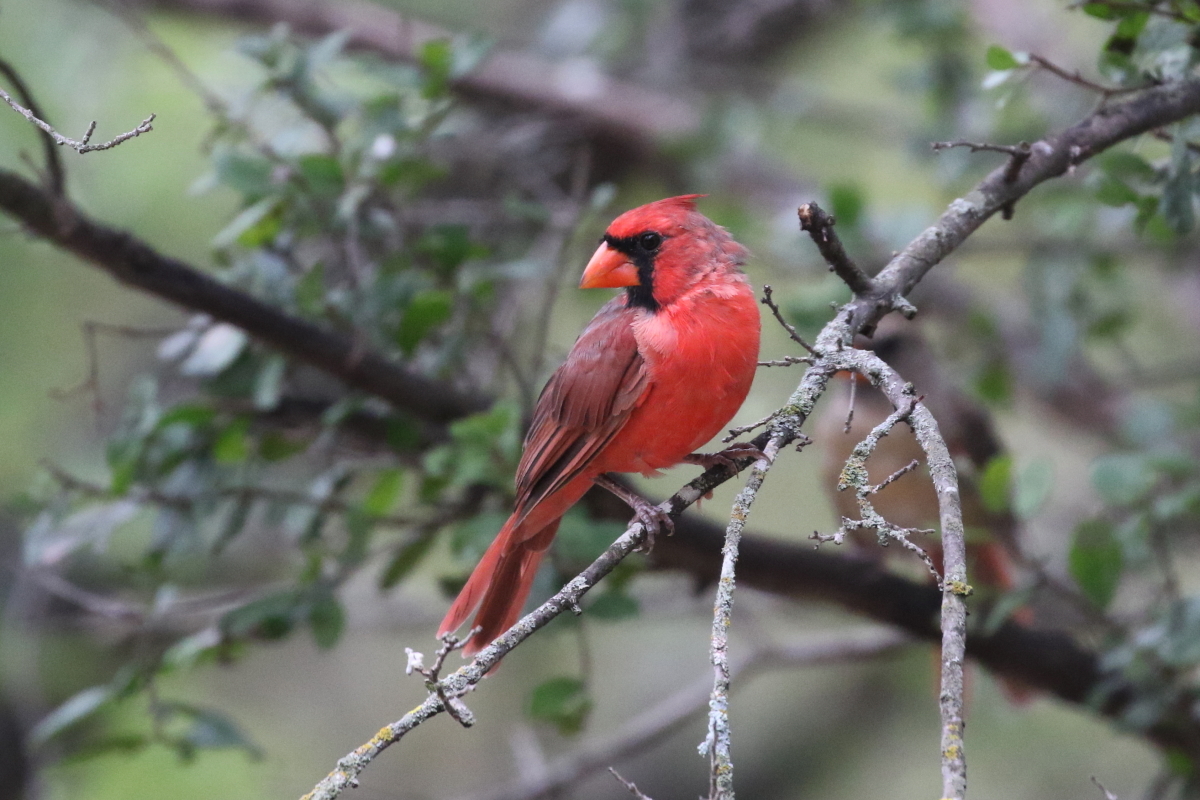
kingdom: Animalia
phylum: Chordata
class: Aves
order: Passeriformes
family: Cardinalidae
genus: Cardinalis
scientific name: Cardinalis cardinalis
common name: Northern cardinal
